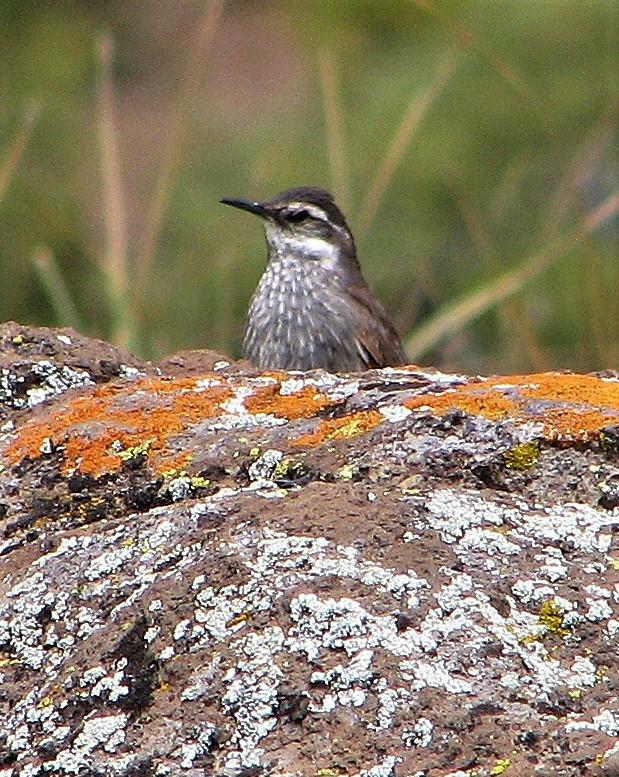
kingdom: Animalia
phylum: Chordata
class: Aves
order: Passeriformes
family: Furnariidae
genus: Cinclodes
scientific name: Cinclodes patagonicus
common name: Dark-bellied cinclodes
